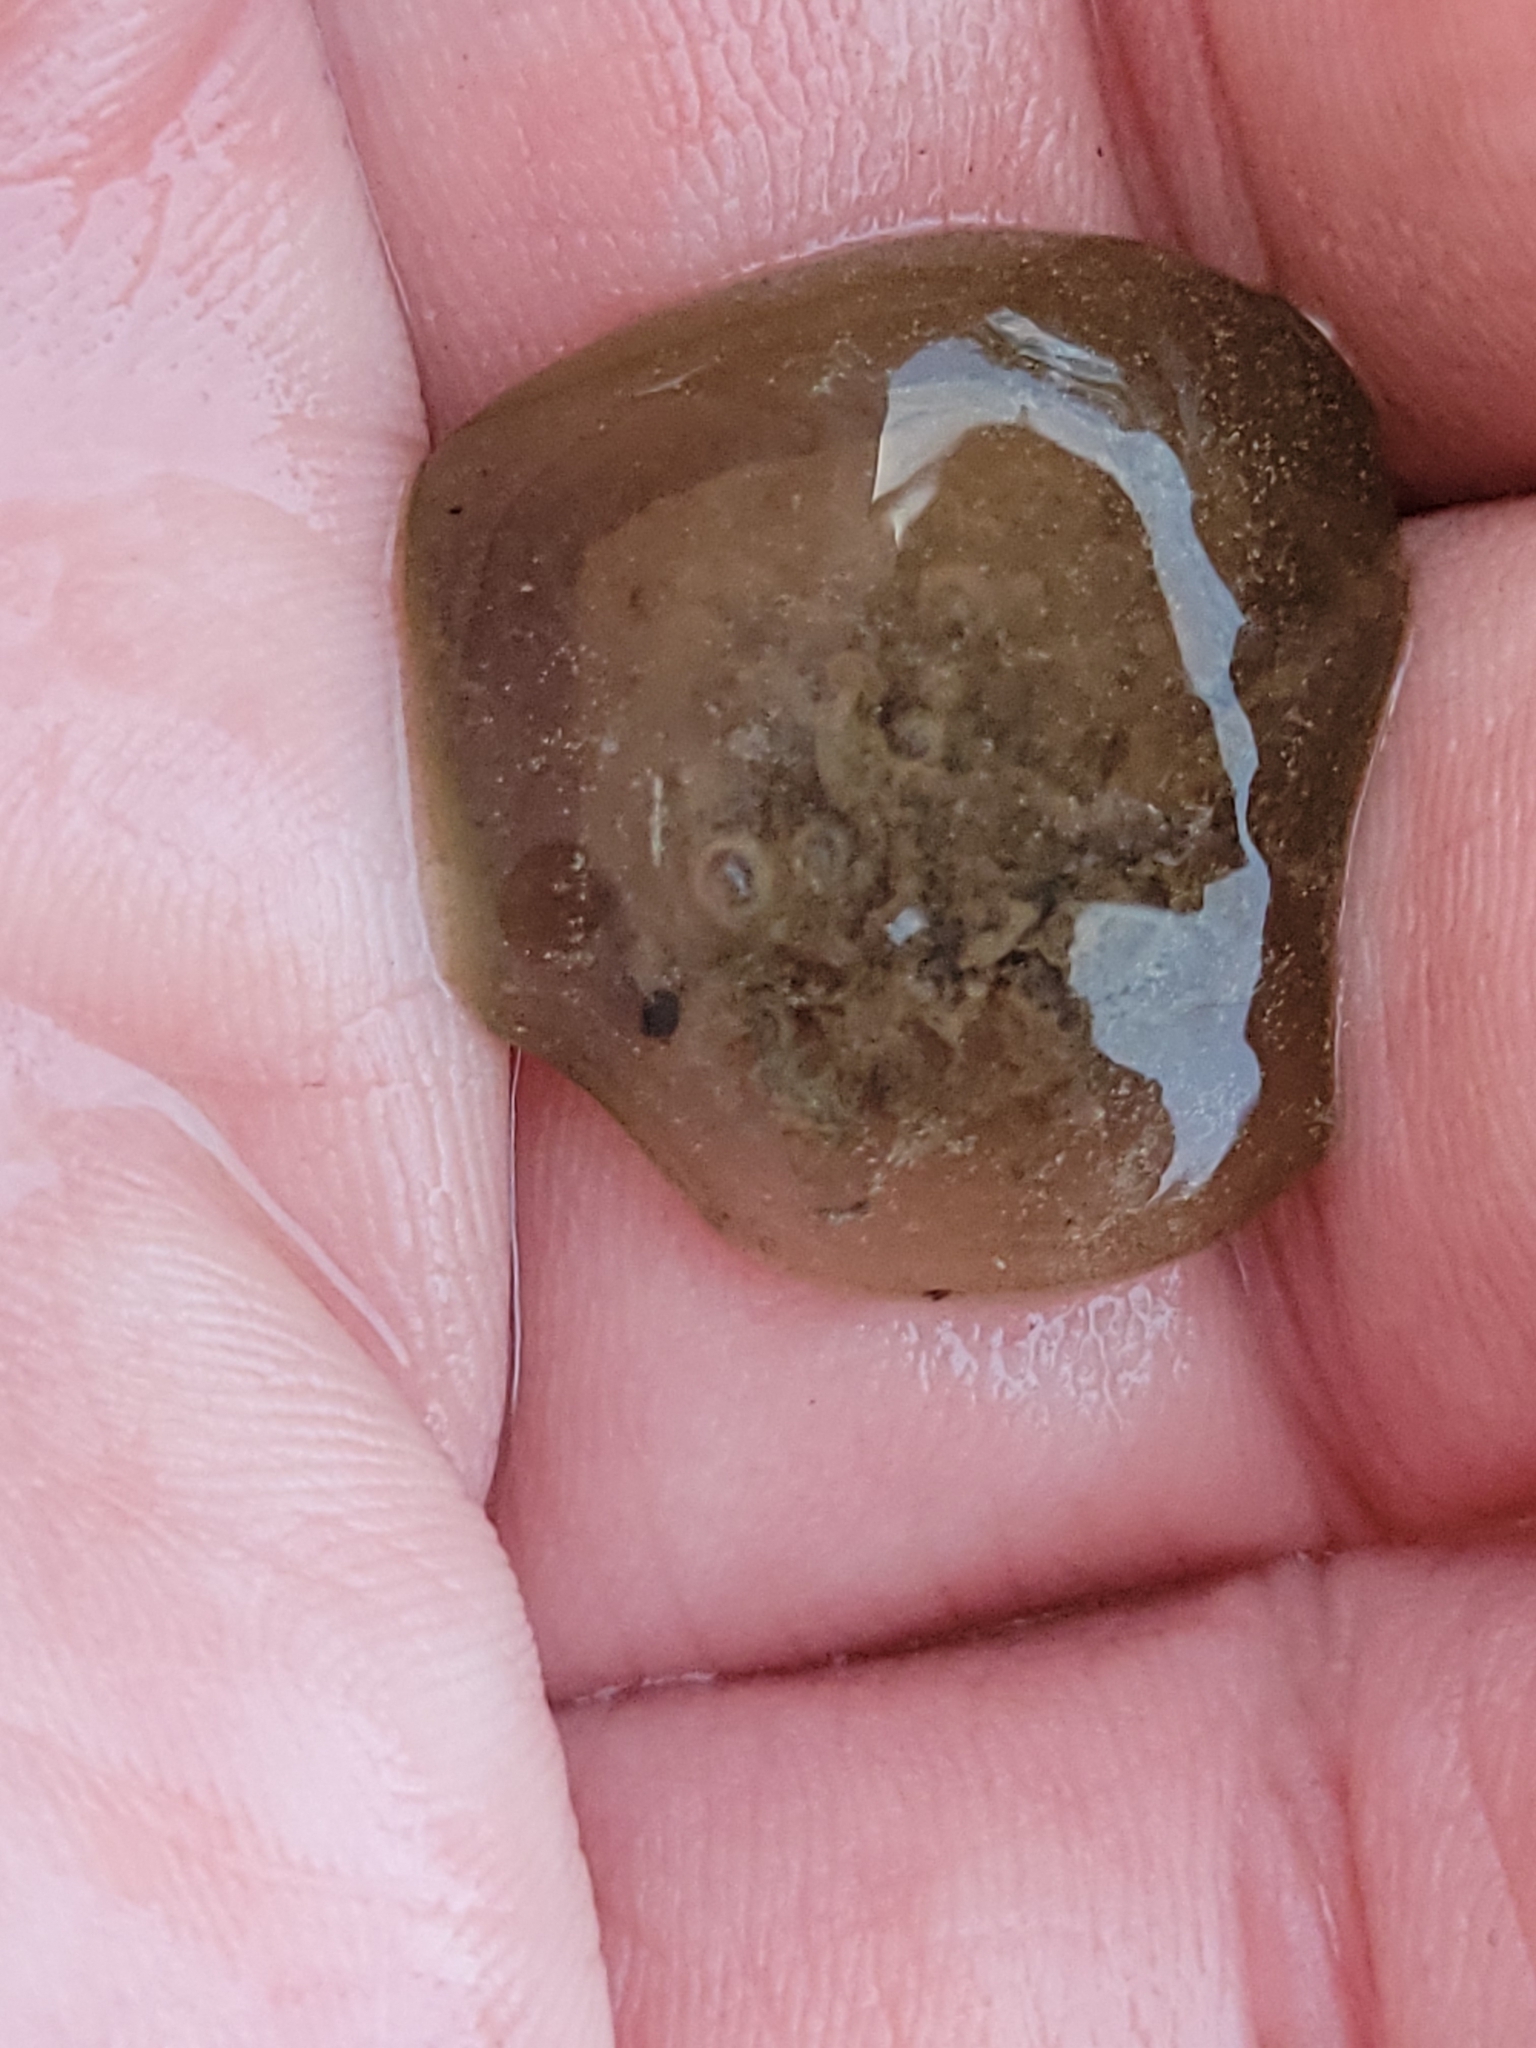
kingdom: Chromista
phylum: Ciliophora
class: Oligohymenophorea
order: Peritrichida
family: Ophrydiidae
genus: Ophrydium
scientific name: Ophrydium
